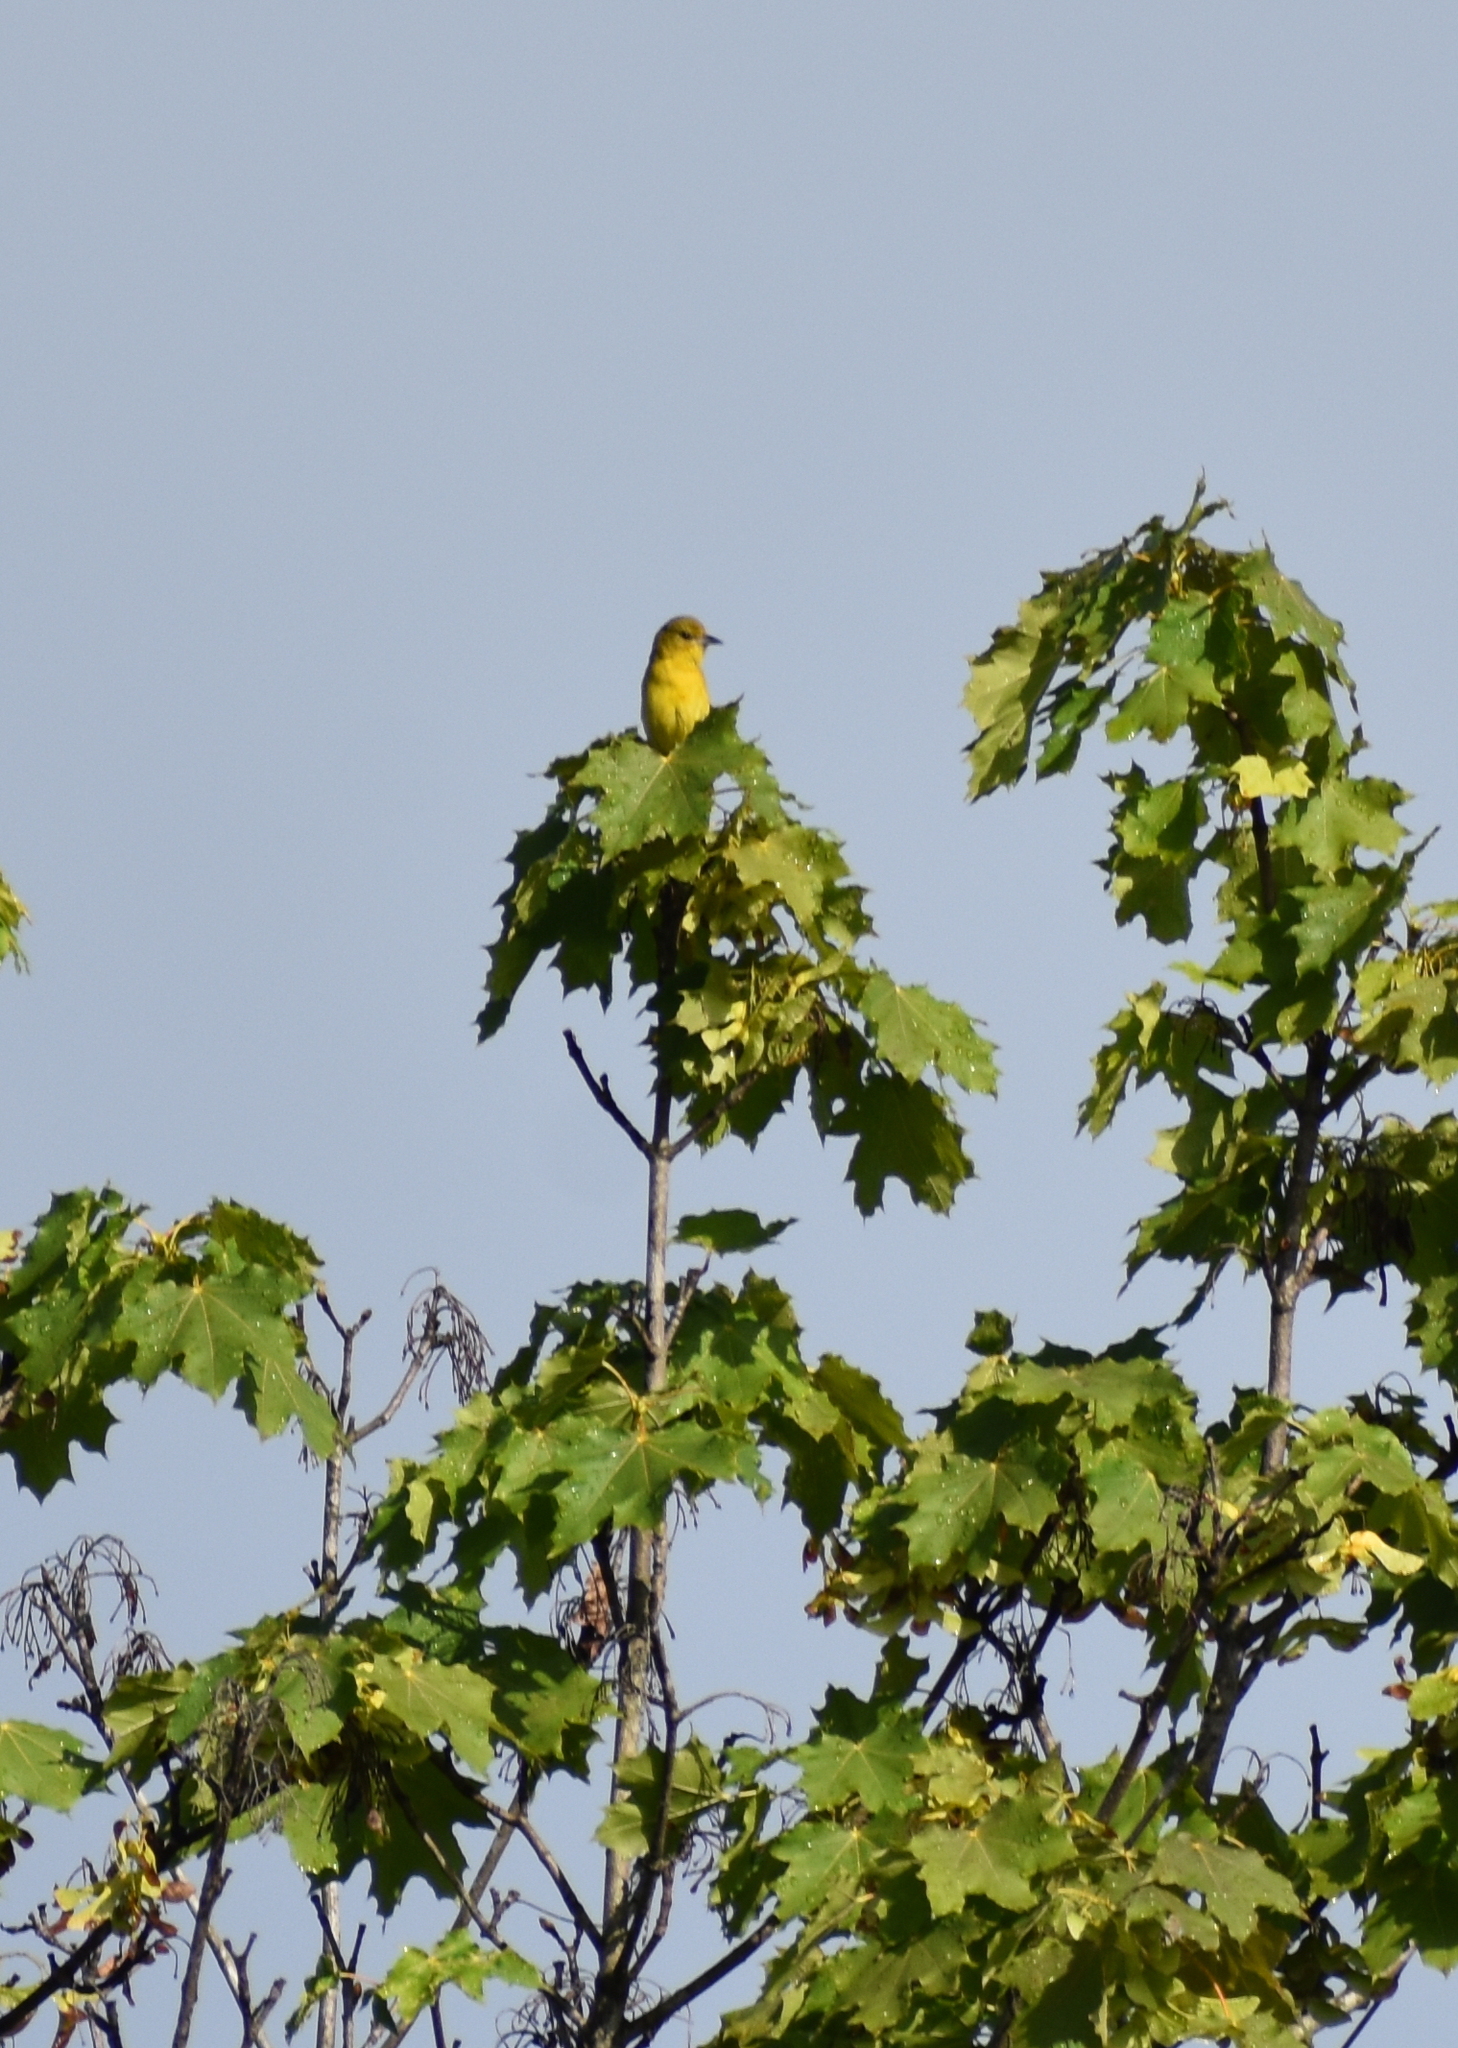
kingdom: Animalia
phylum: Chordata
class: Aves
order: Passeriformes
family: Icteridae
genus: Icterus
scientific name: Icterus spurius
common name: Orchard oriole
